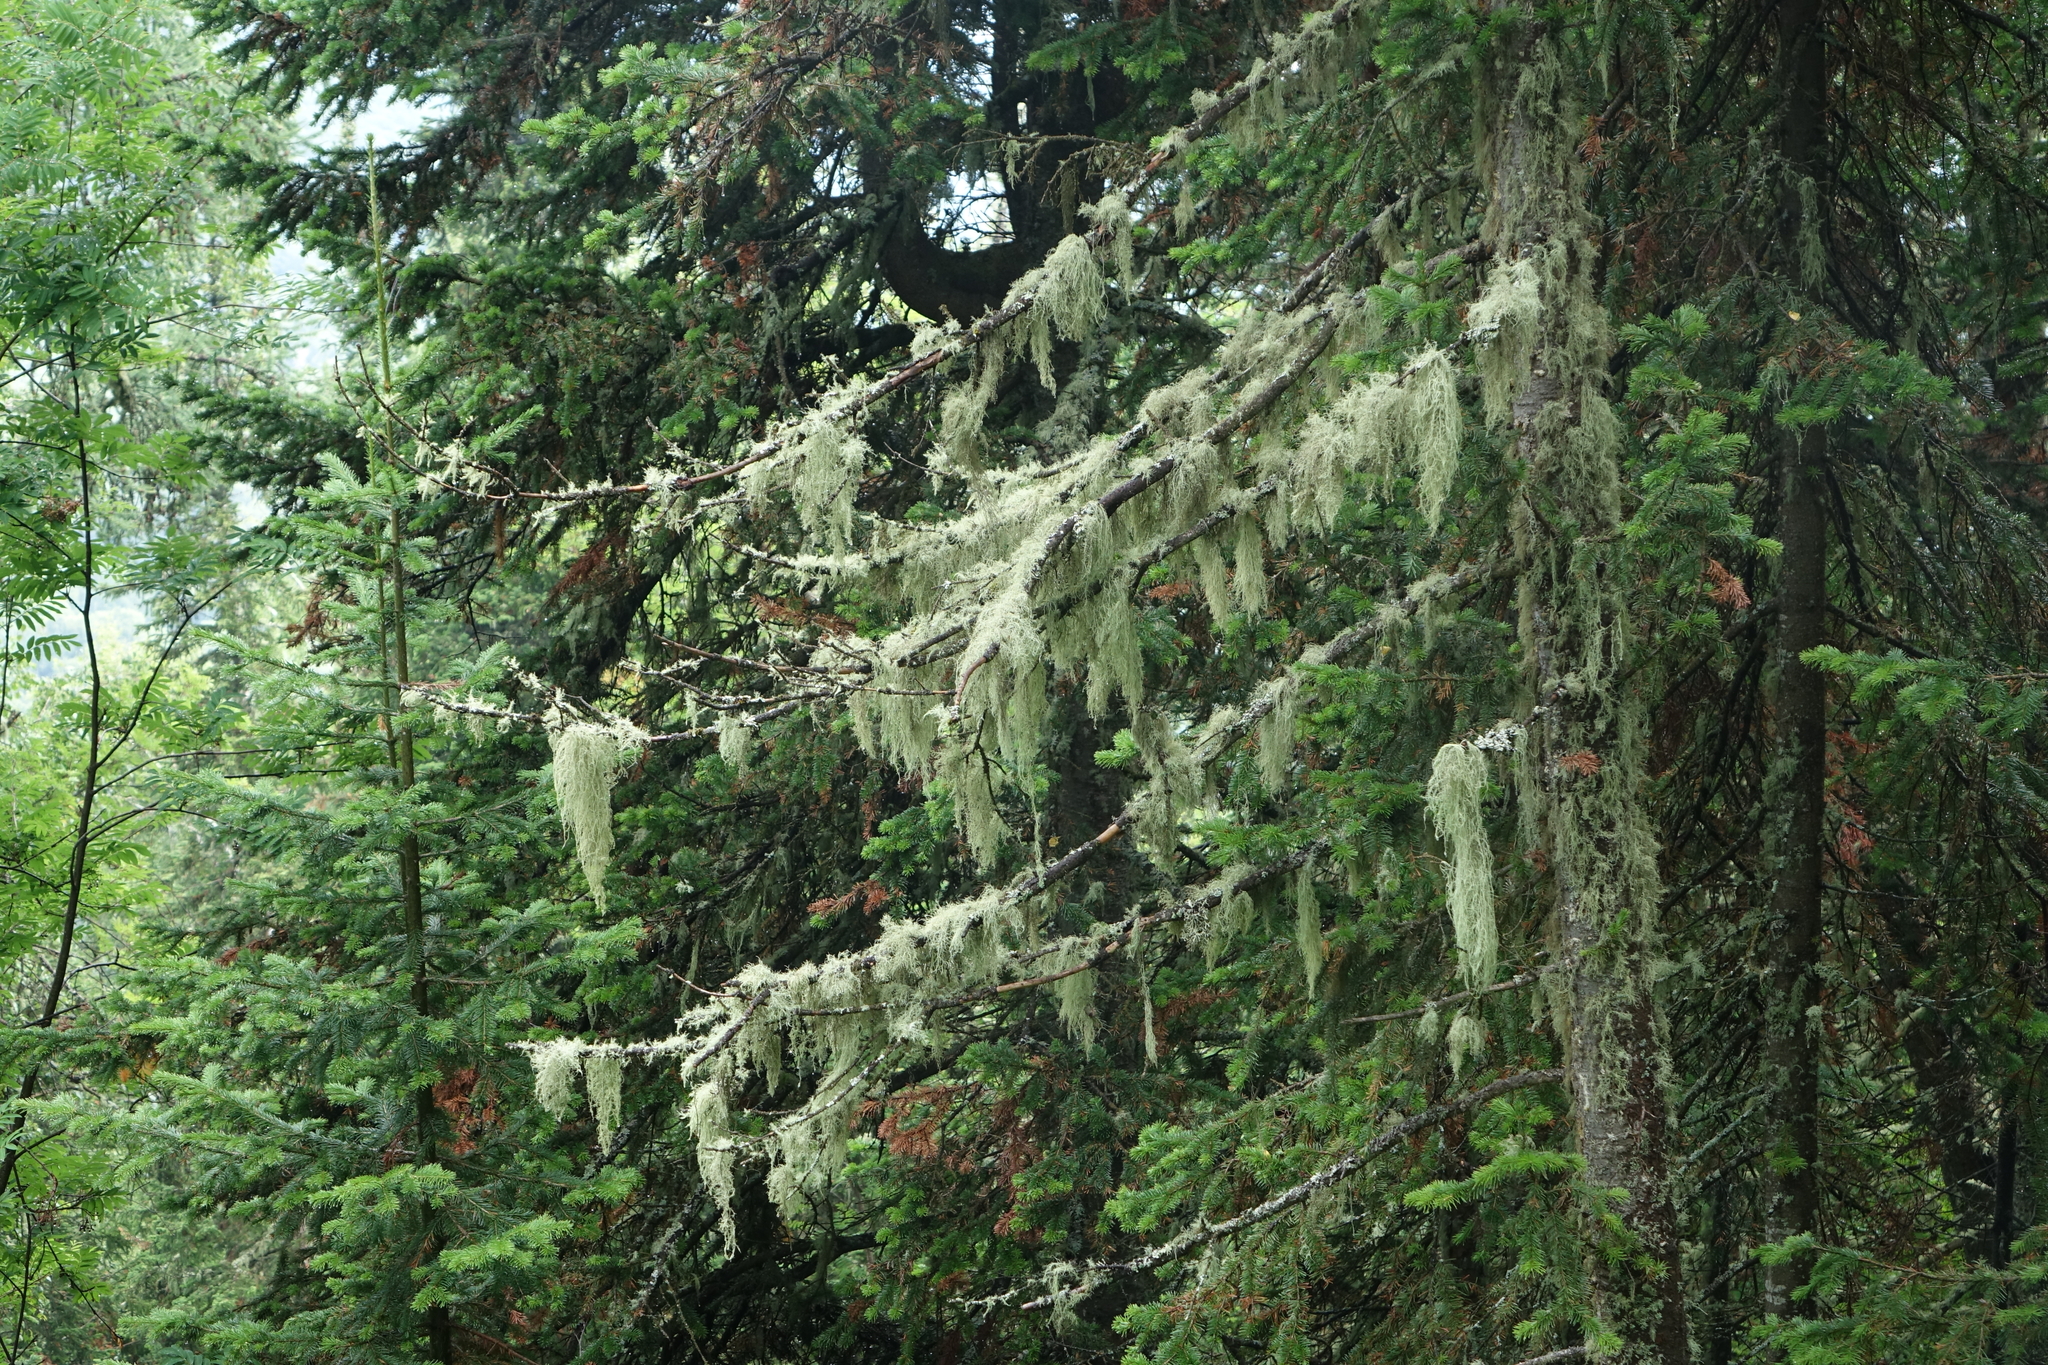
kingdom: Plantae
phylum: Tracheophyta
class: Pinopsida
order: Pinales
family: Pinaceae
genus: Abies
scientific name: Abies sibirica
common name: Siberian fir
